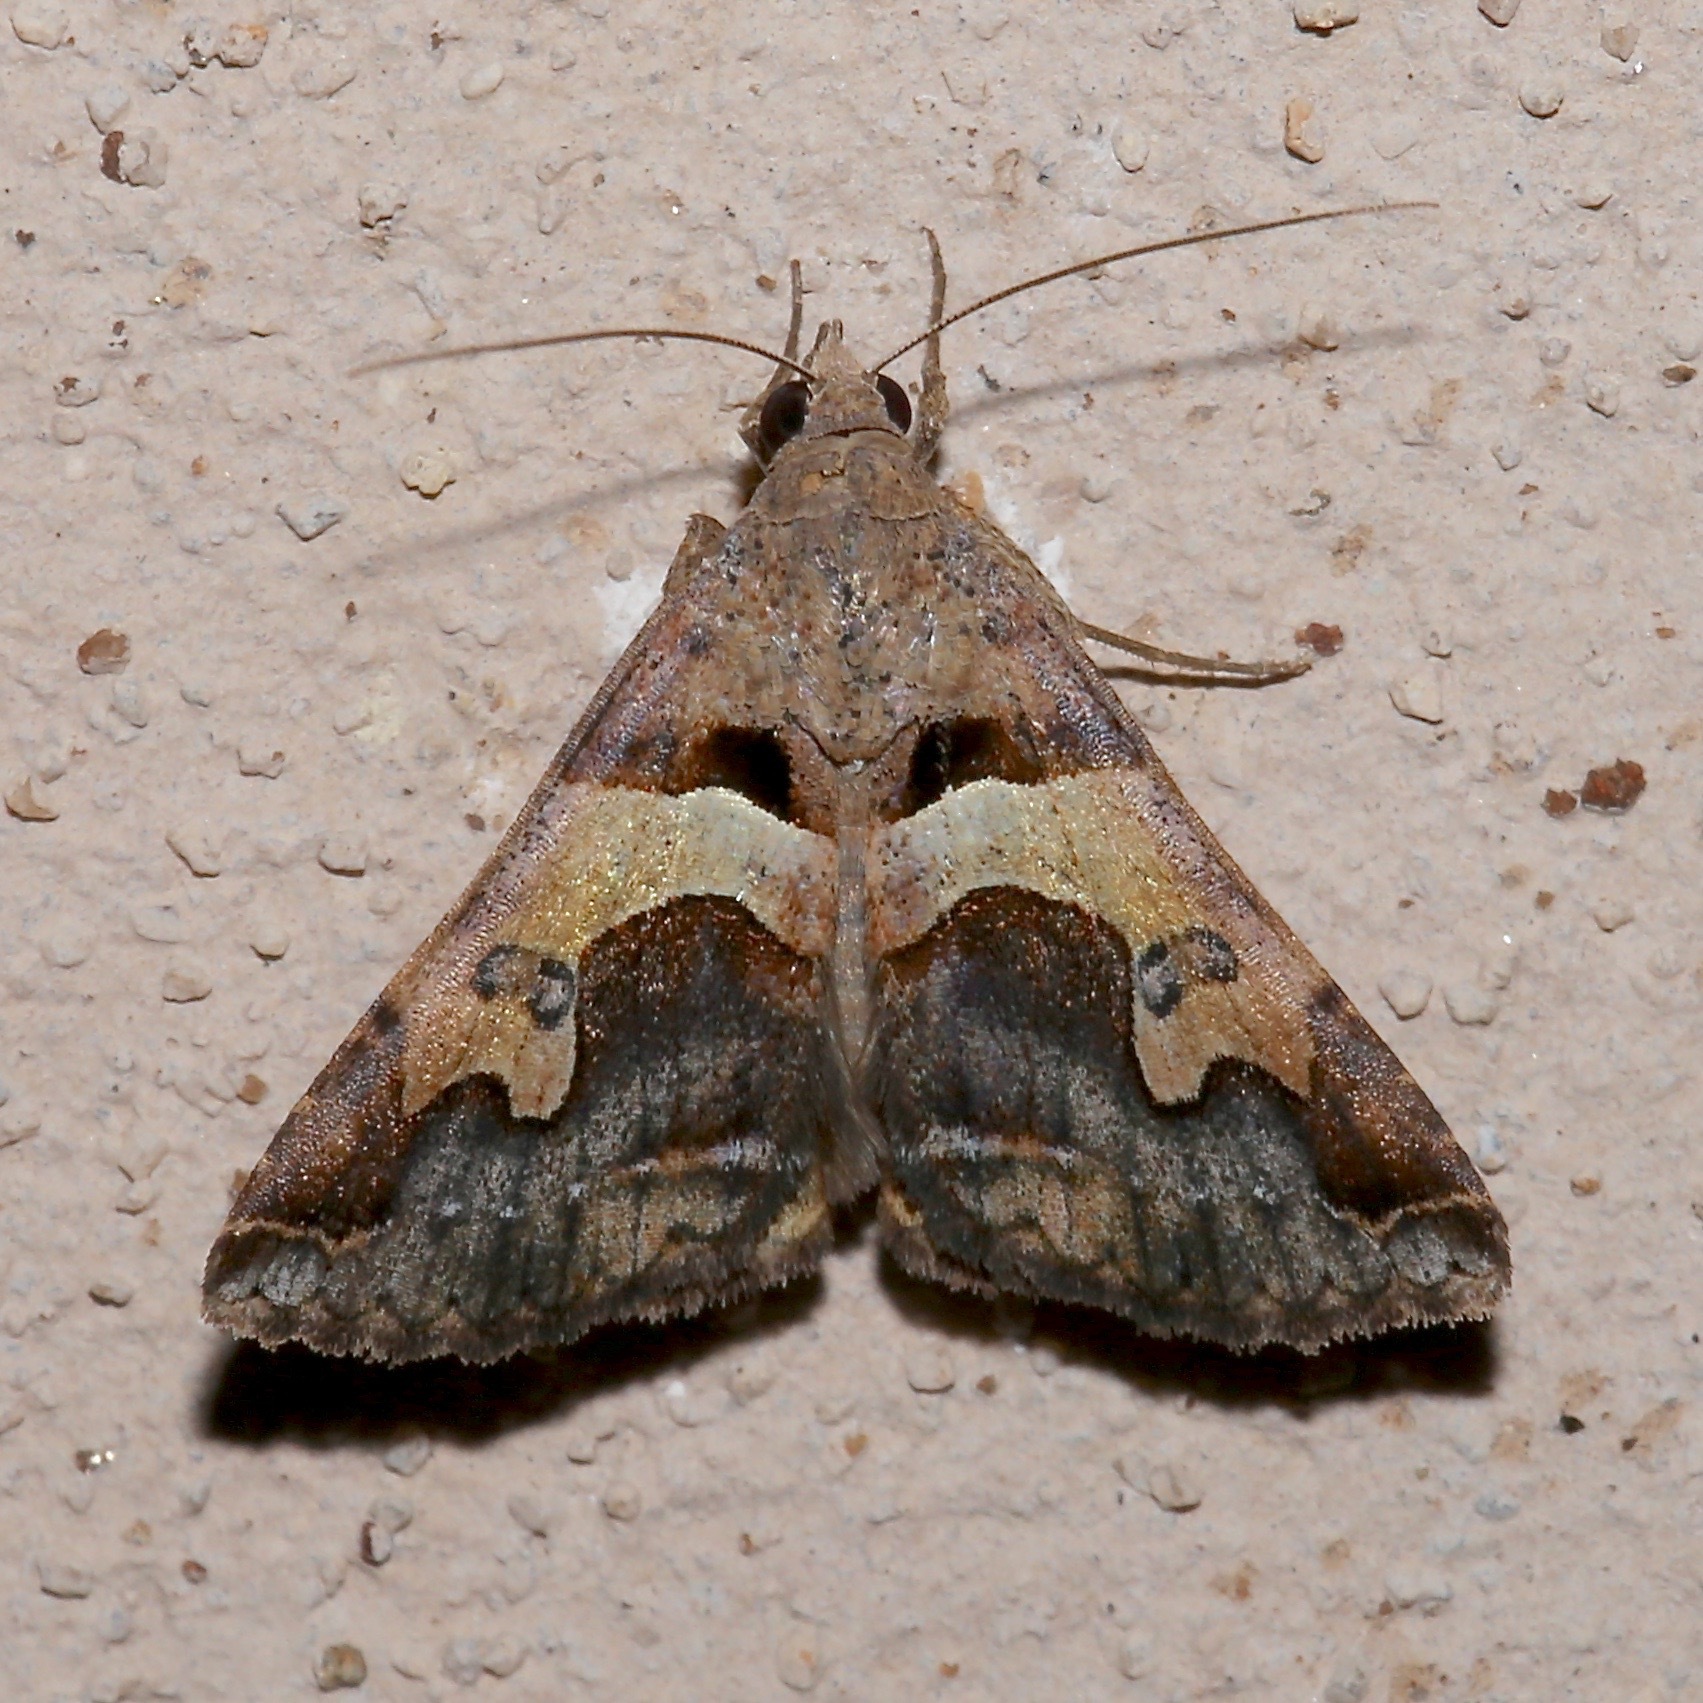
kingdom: Animalia
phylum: Arthropoda
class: Insecta
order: Lepidoptera
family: Erebidae
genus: Panula
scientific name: Panula inconstans
